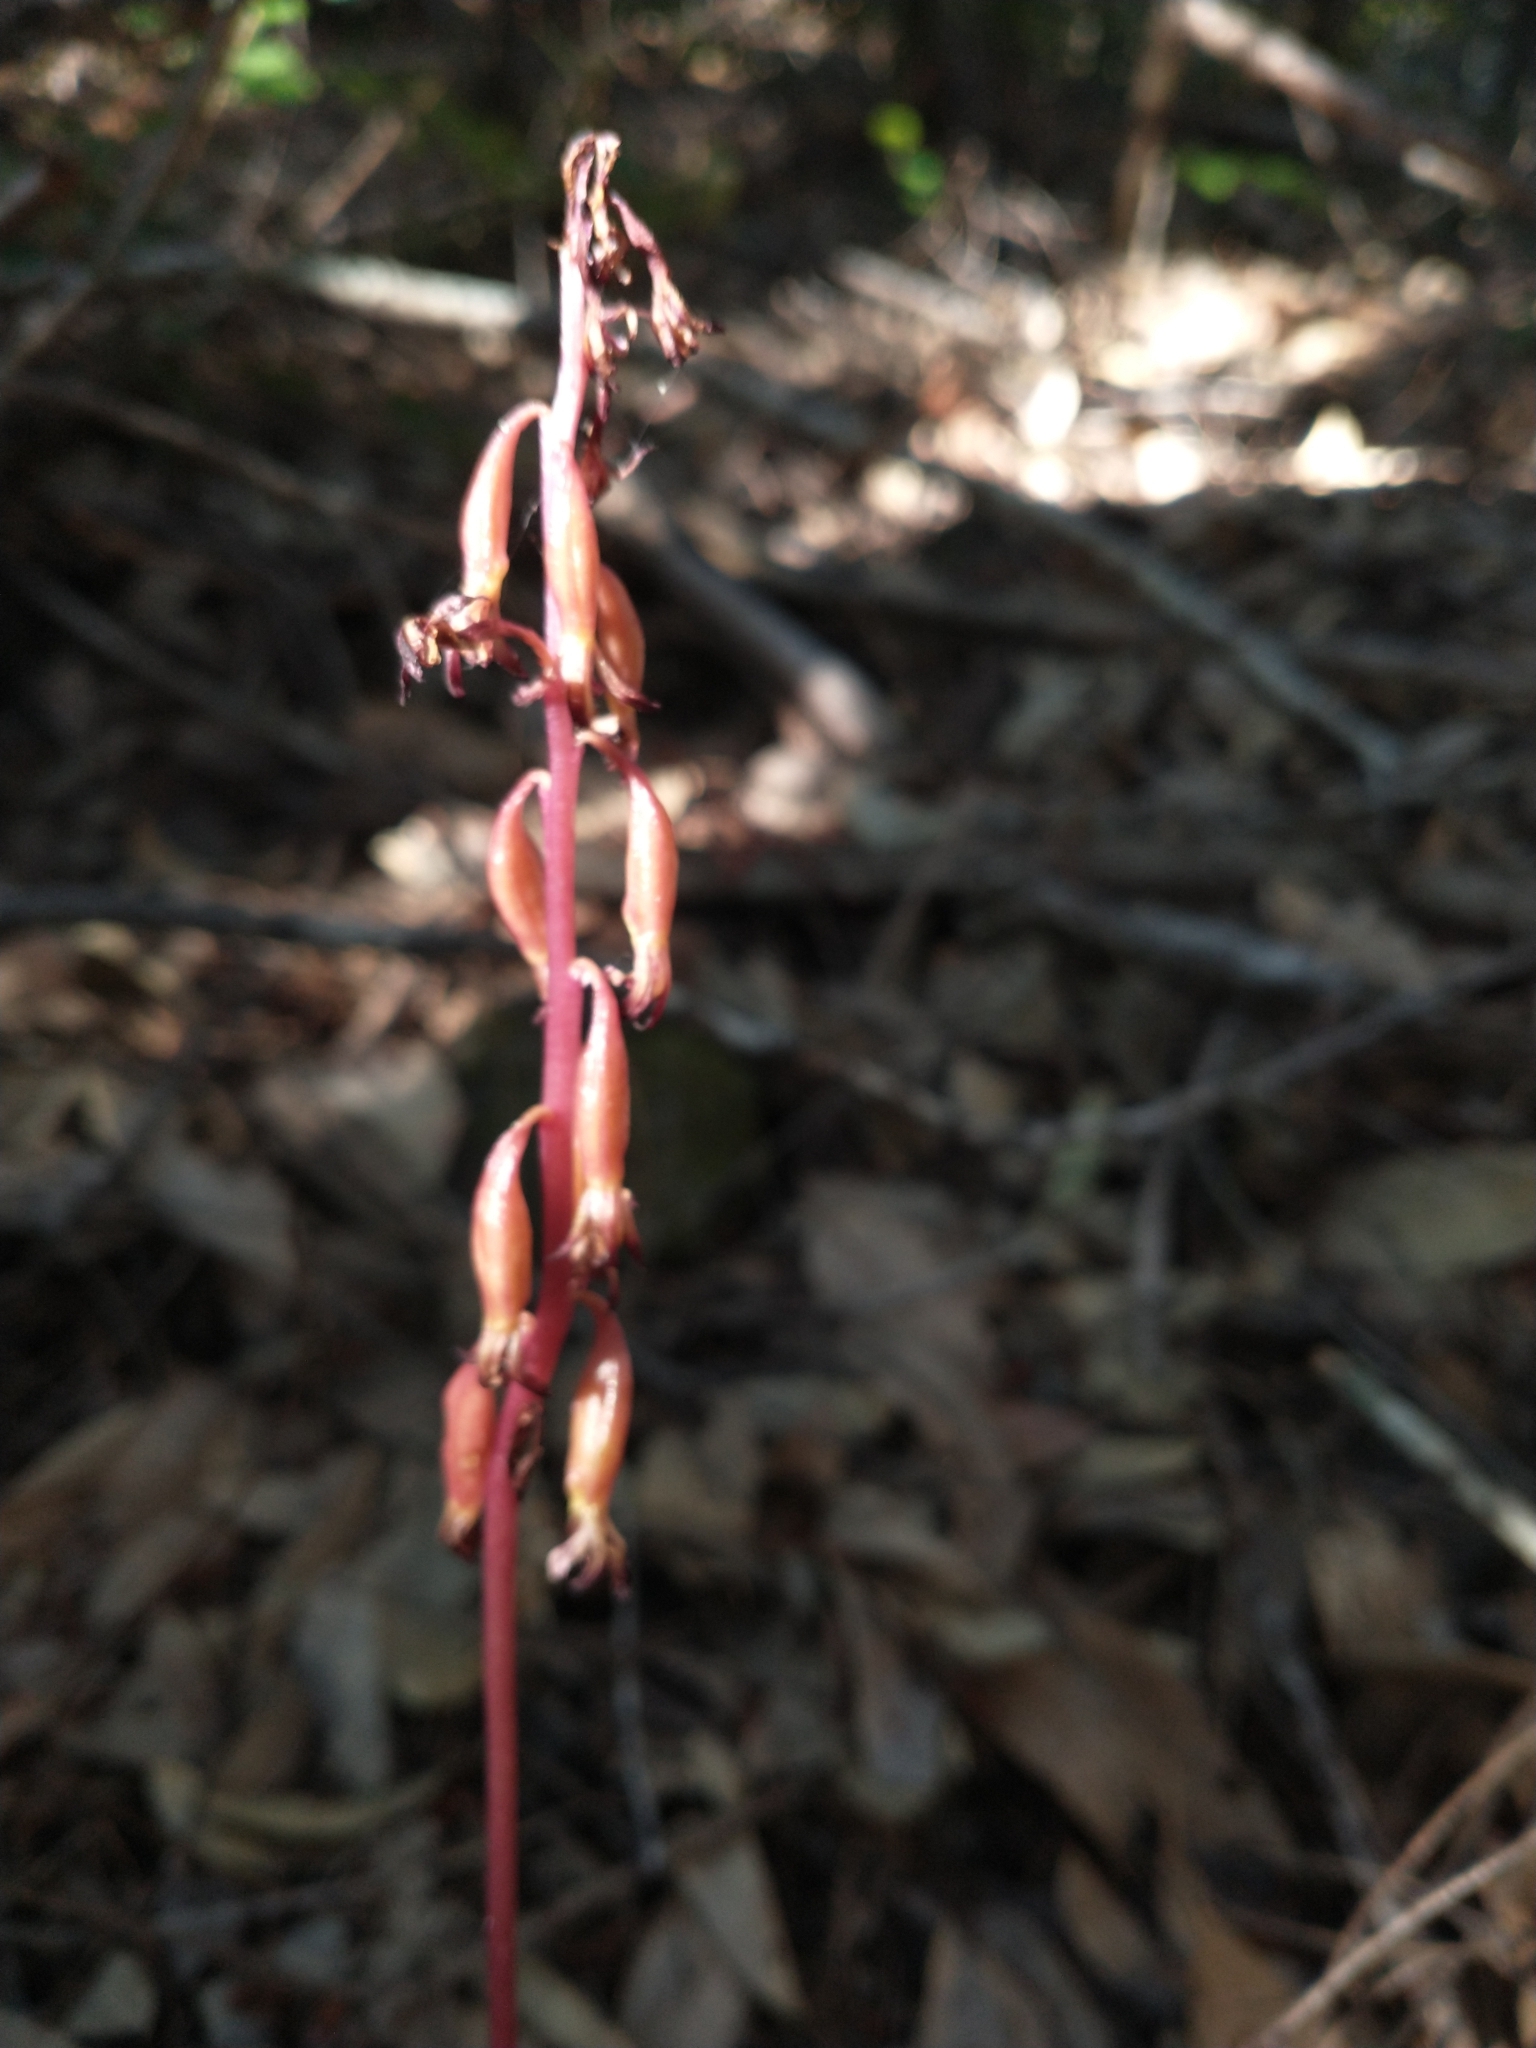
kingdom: Plantae
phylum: Tracheophyta
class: Liliopsida
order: Asparagales
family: Orchidaceae
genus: Corallorhiza
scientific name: Corallorhiza maculata
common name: Spotted coralroot
